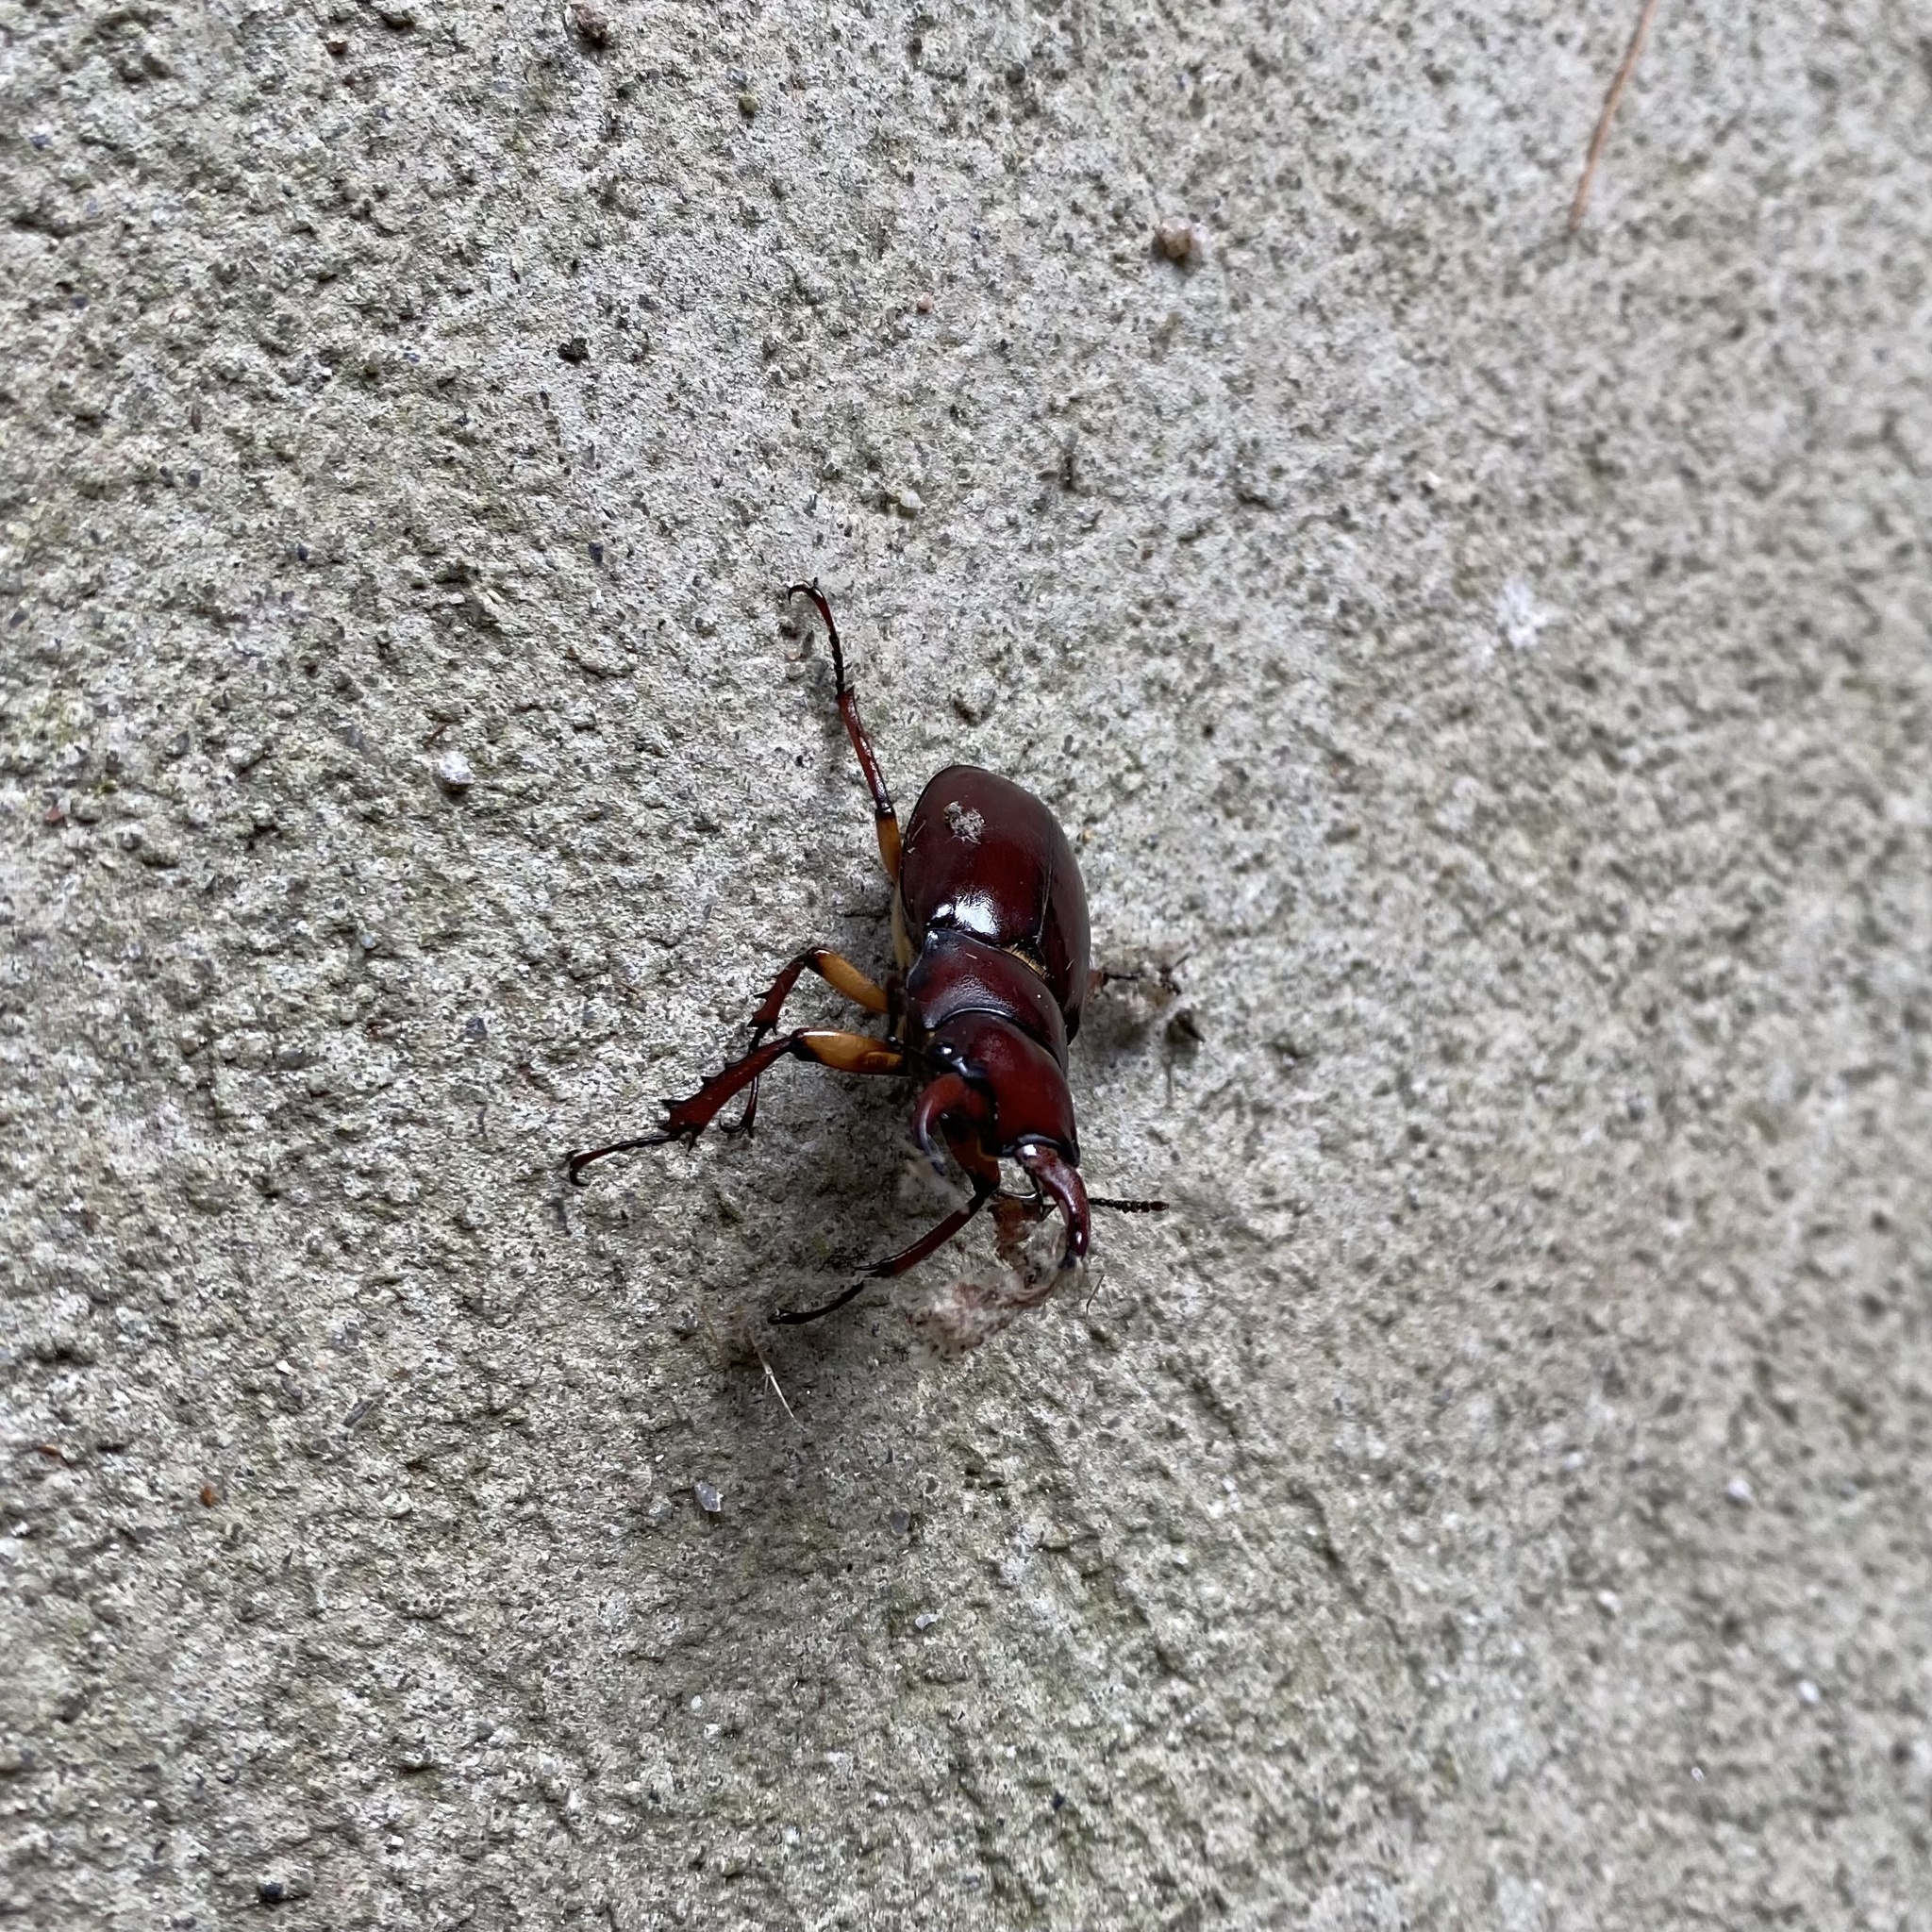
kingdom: Animalia
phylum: Arthropoda
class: Insecta
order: Coleoptera
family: Lucanidae
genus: Lucanus
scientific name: Lucanus capreolus
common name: Stag beetle
